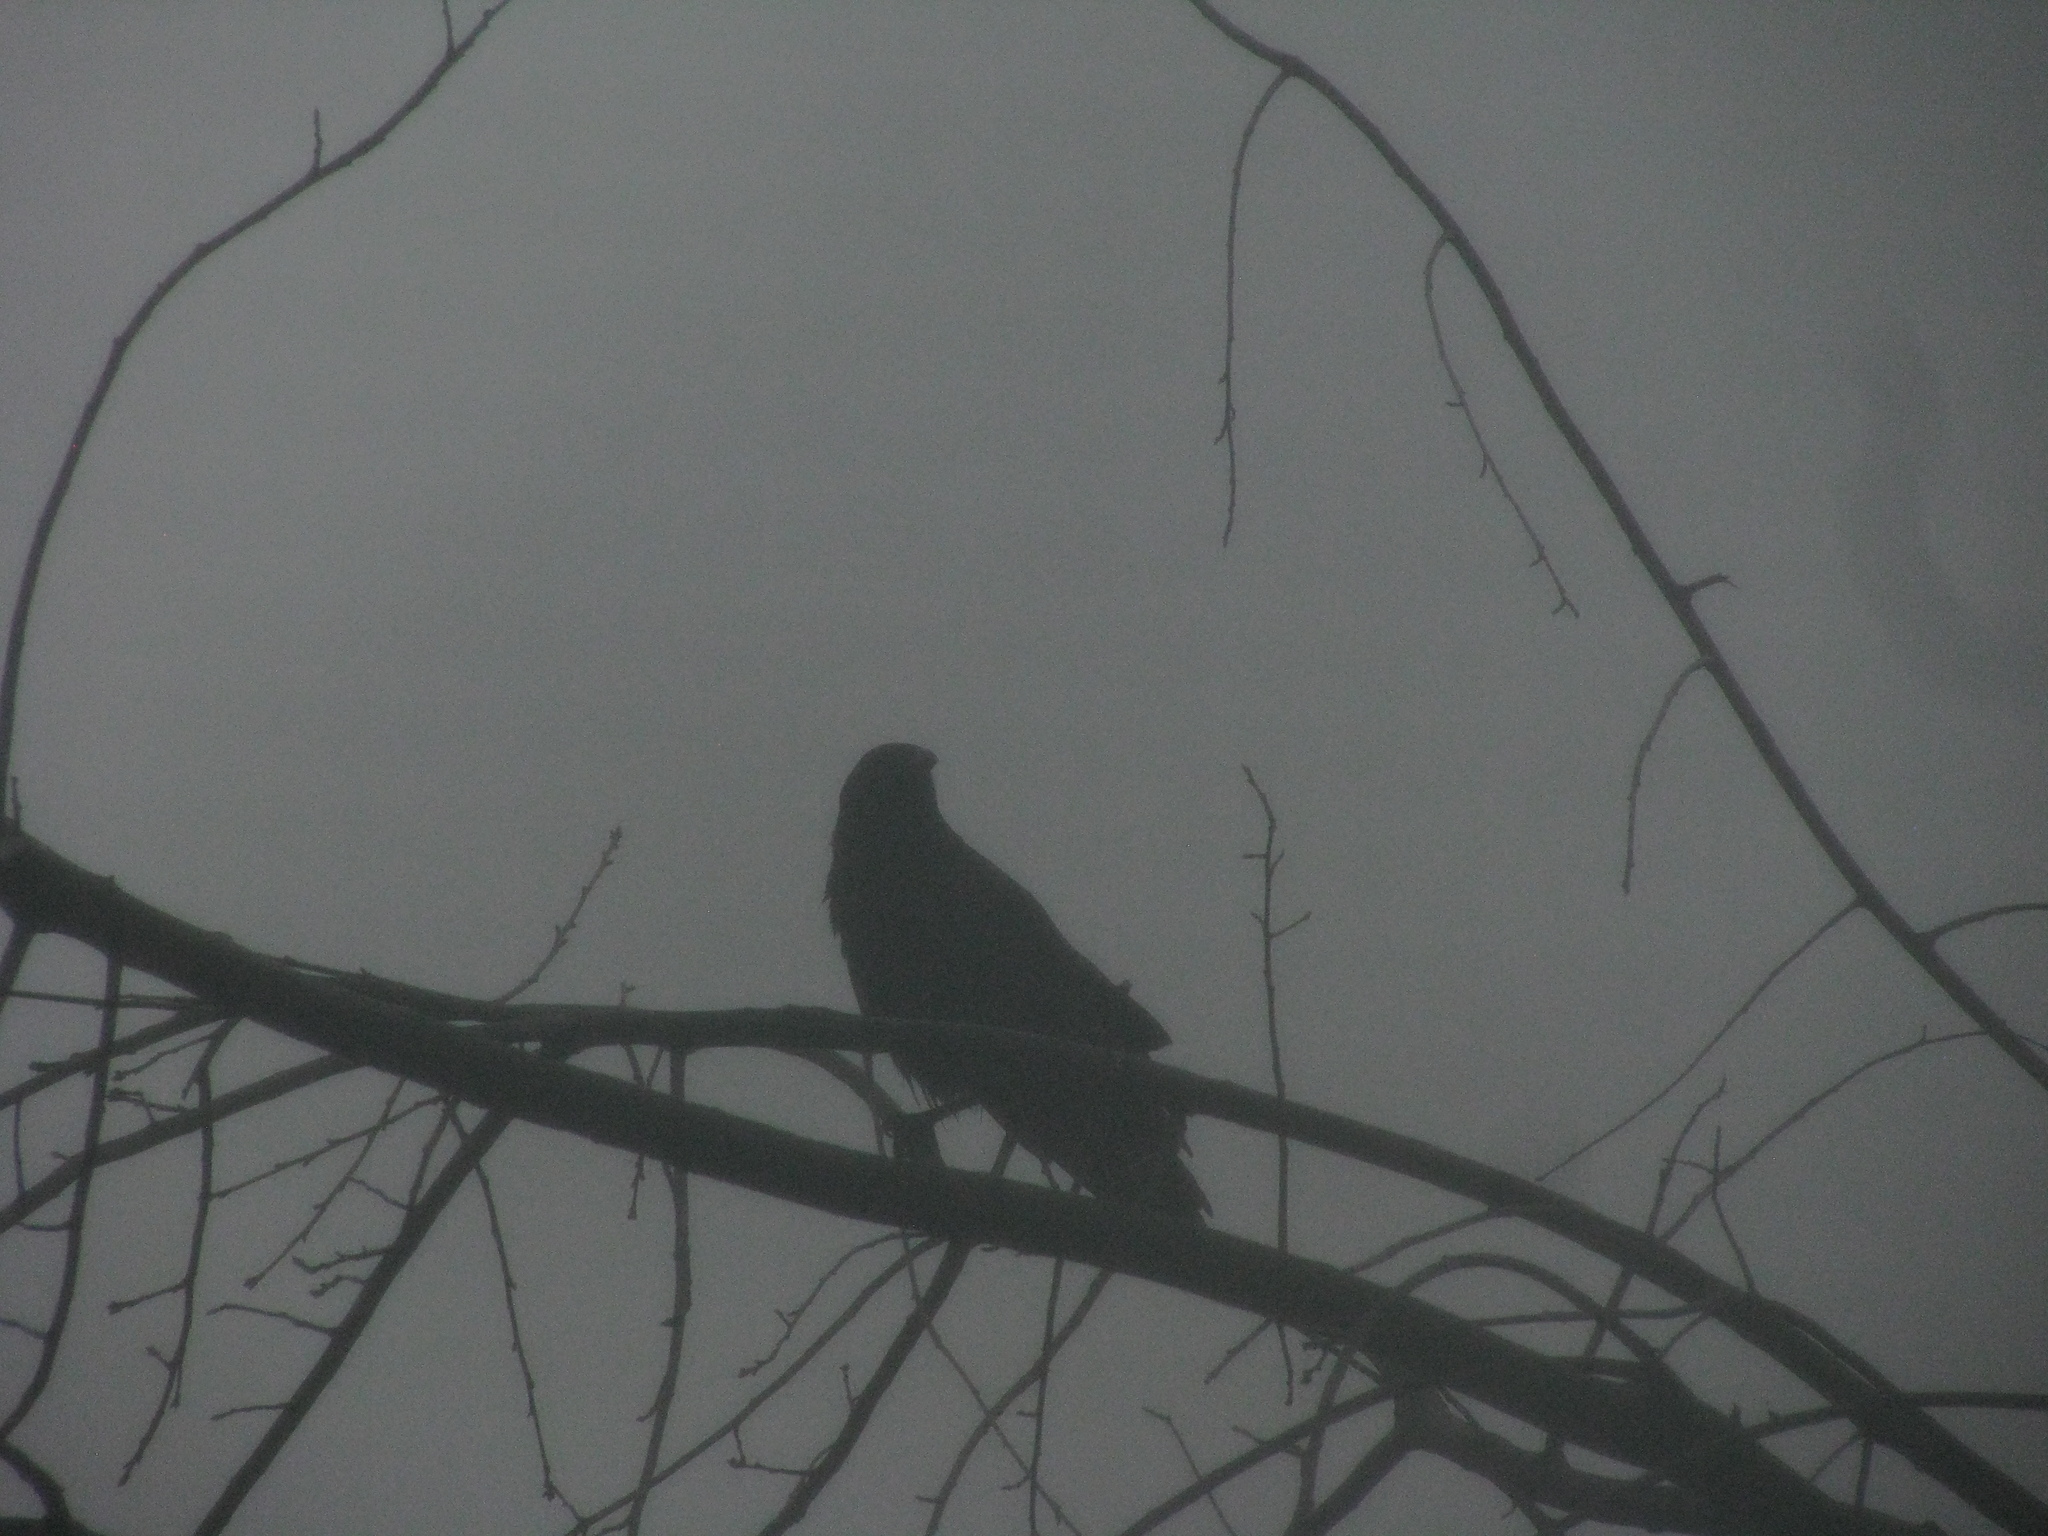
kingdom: Animalia
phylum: Chordata
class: Aves
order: Passeriformes
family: Corvidae
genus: Corvus
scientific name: Corvus
